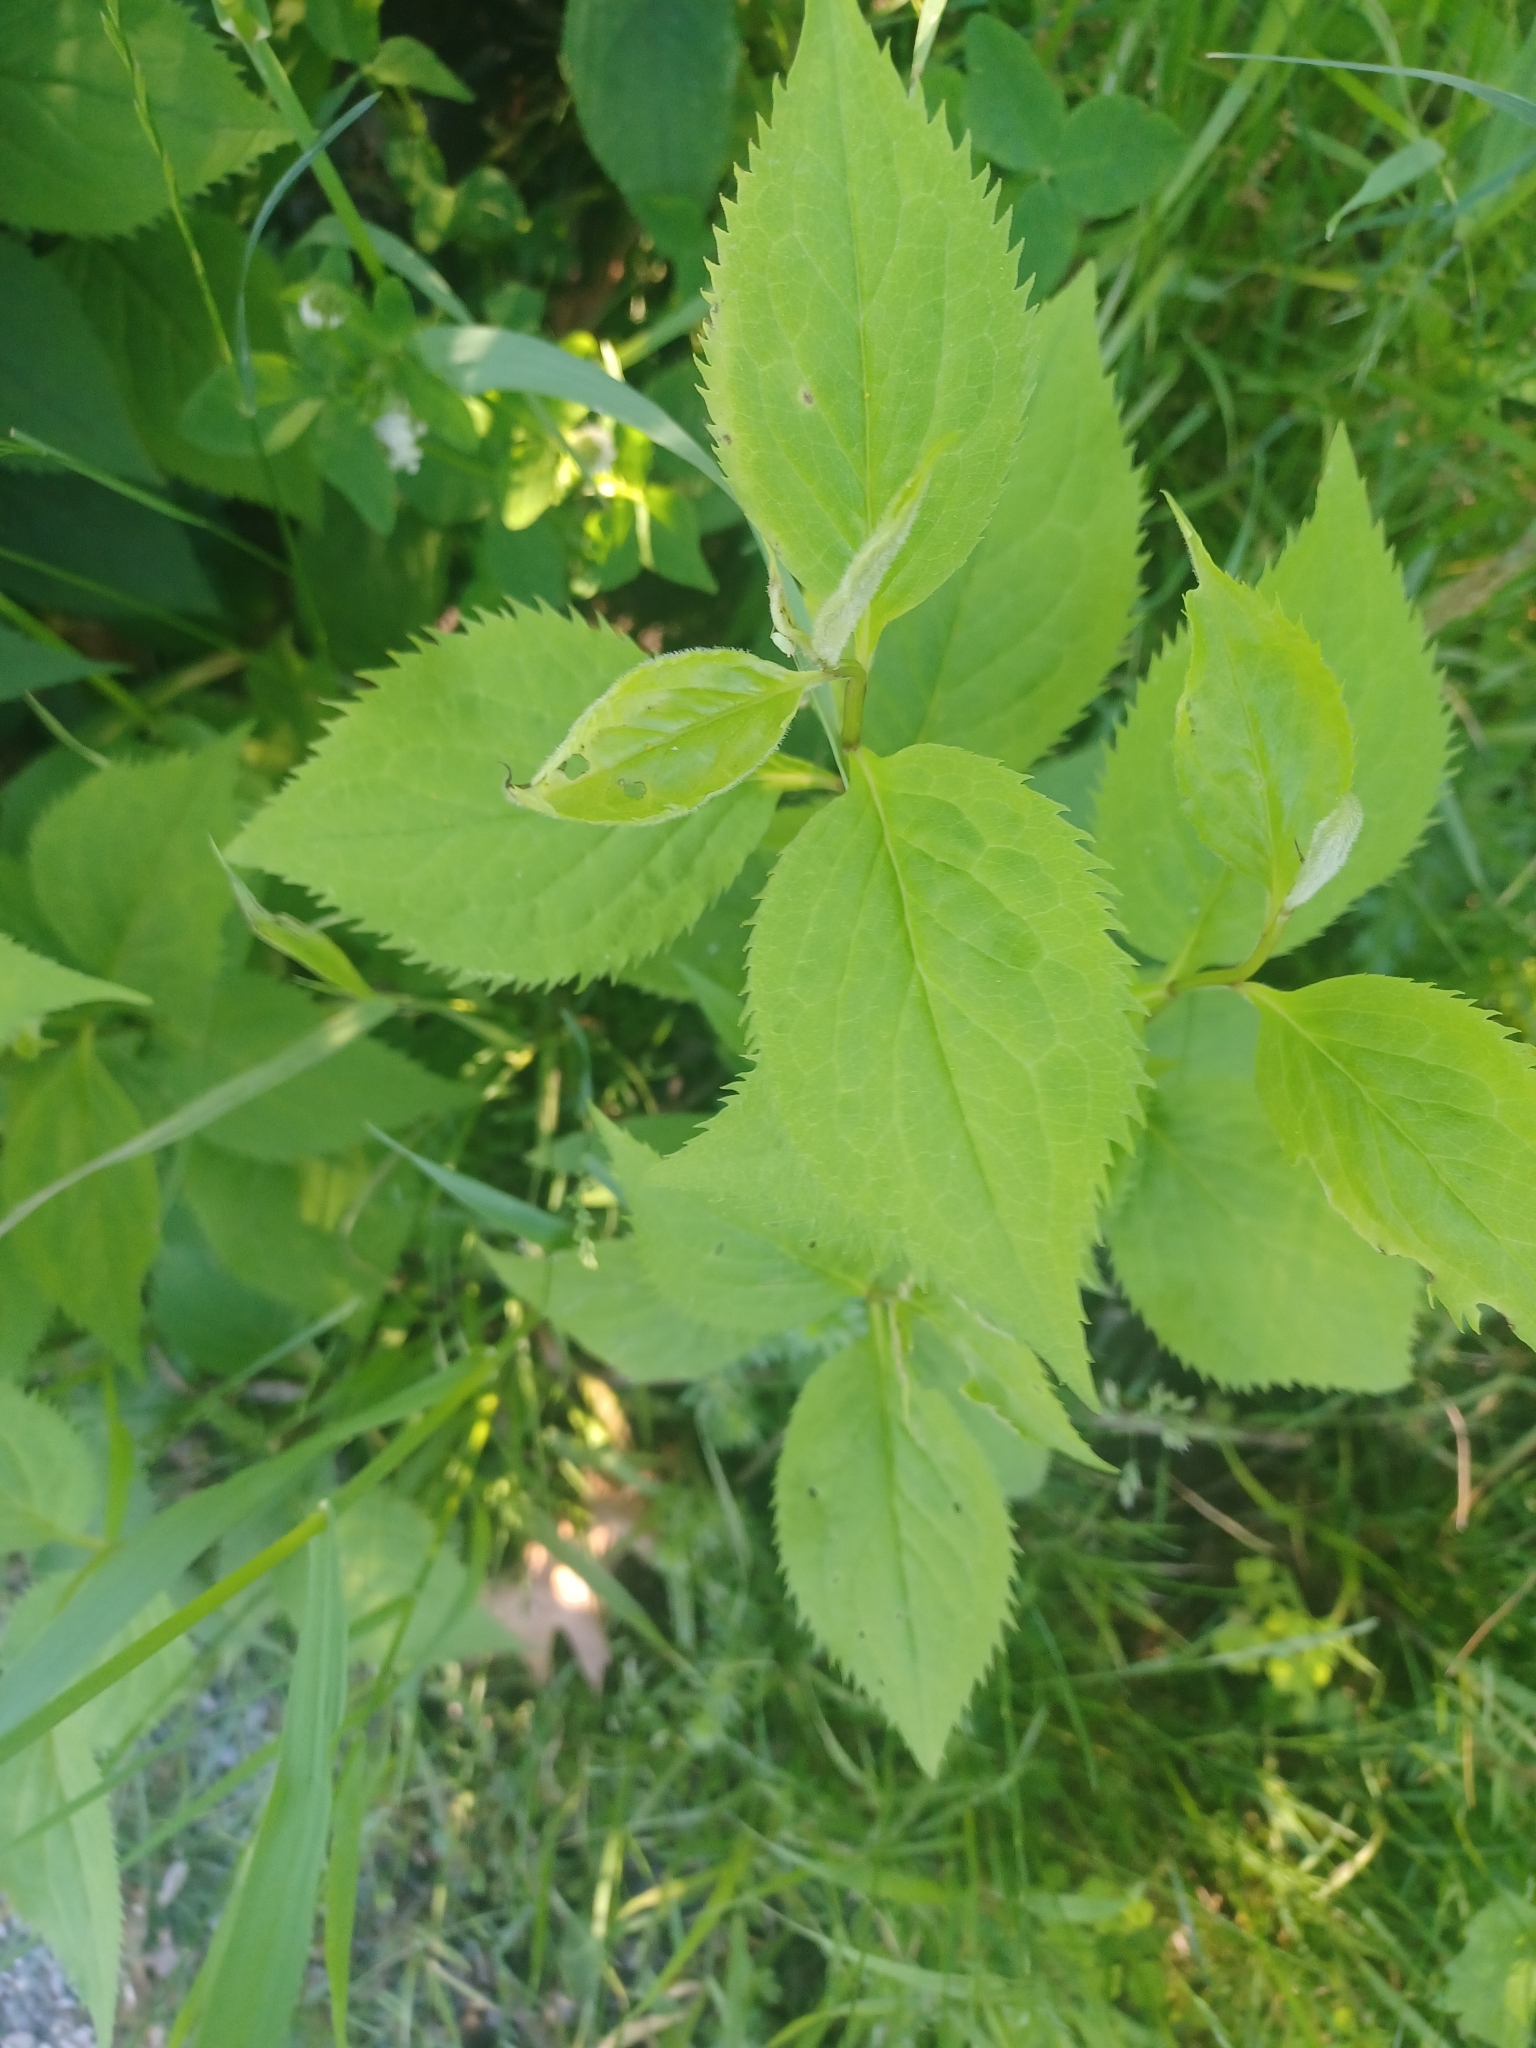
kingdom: Plantae
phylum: Tracheophyta
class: Magnoliopsida
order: Asterales
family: Asteraceae
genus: Solidago
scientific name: Solidago flexicaulis
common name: Zig-zag goldenrod
